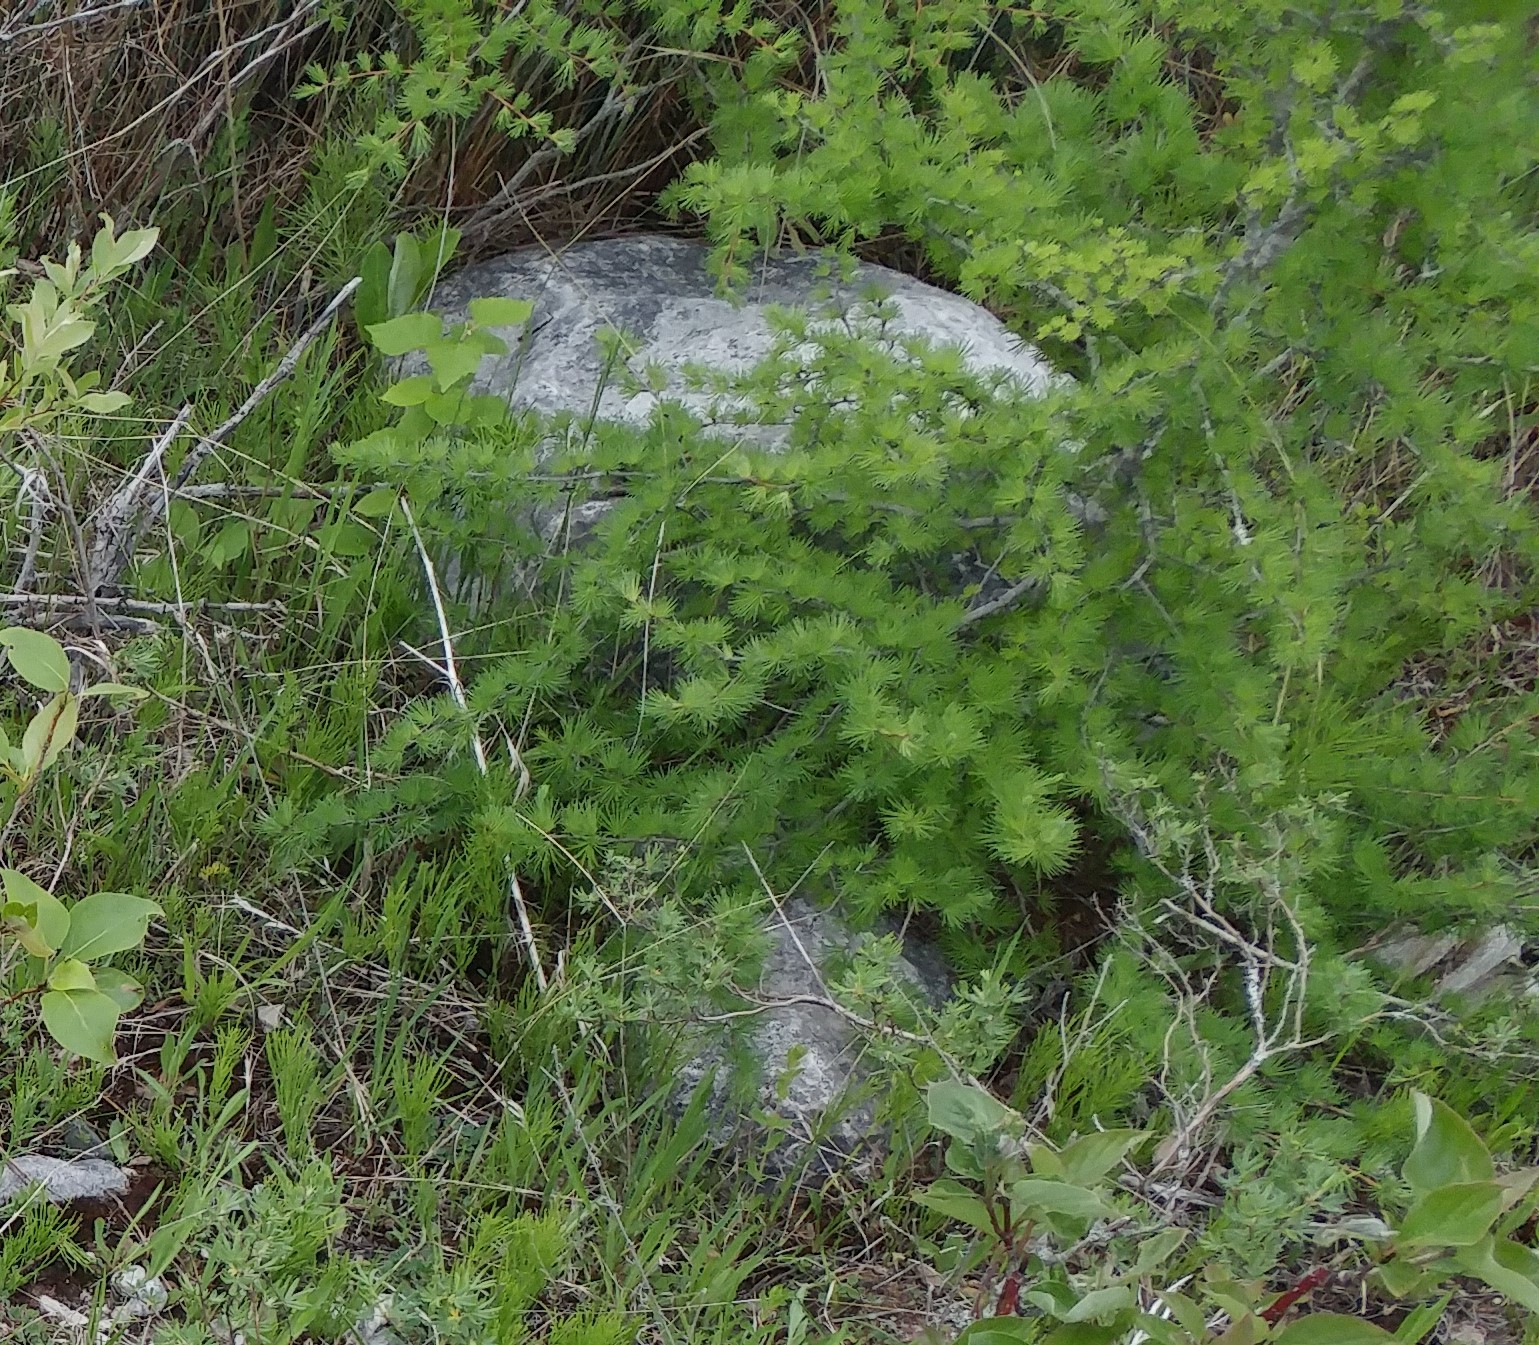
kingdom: Plantae
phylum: Tracheophyta
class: Pinopsida
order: Pinales
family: Pinaceae
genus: Larix
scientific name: Larix laricina
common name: American larch
